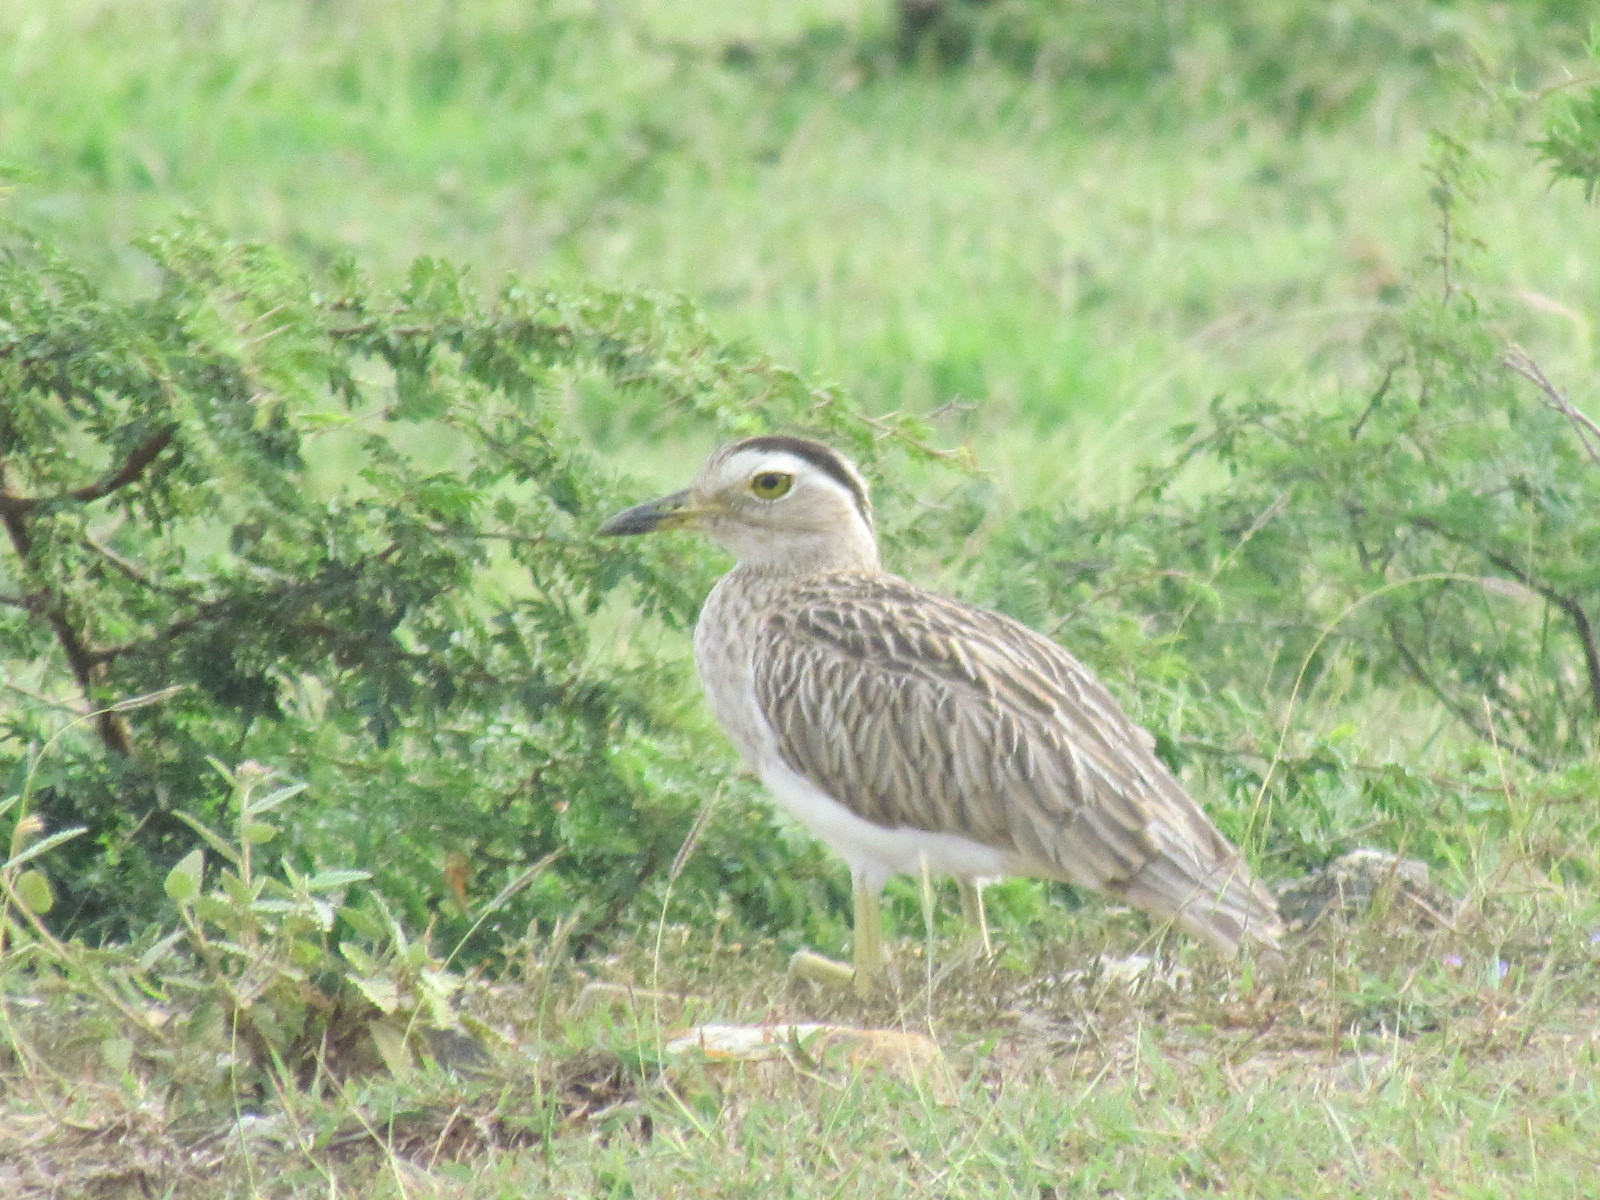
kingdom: Animalia
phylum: Chordata
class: Aves
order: Charadriiformes
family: Burhinidae
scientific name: Burhinidae
